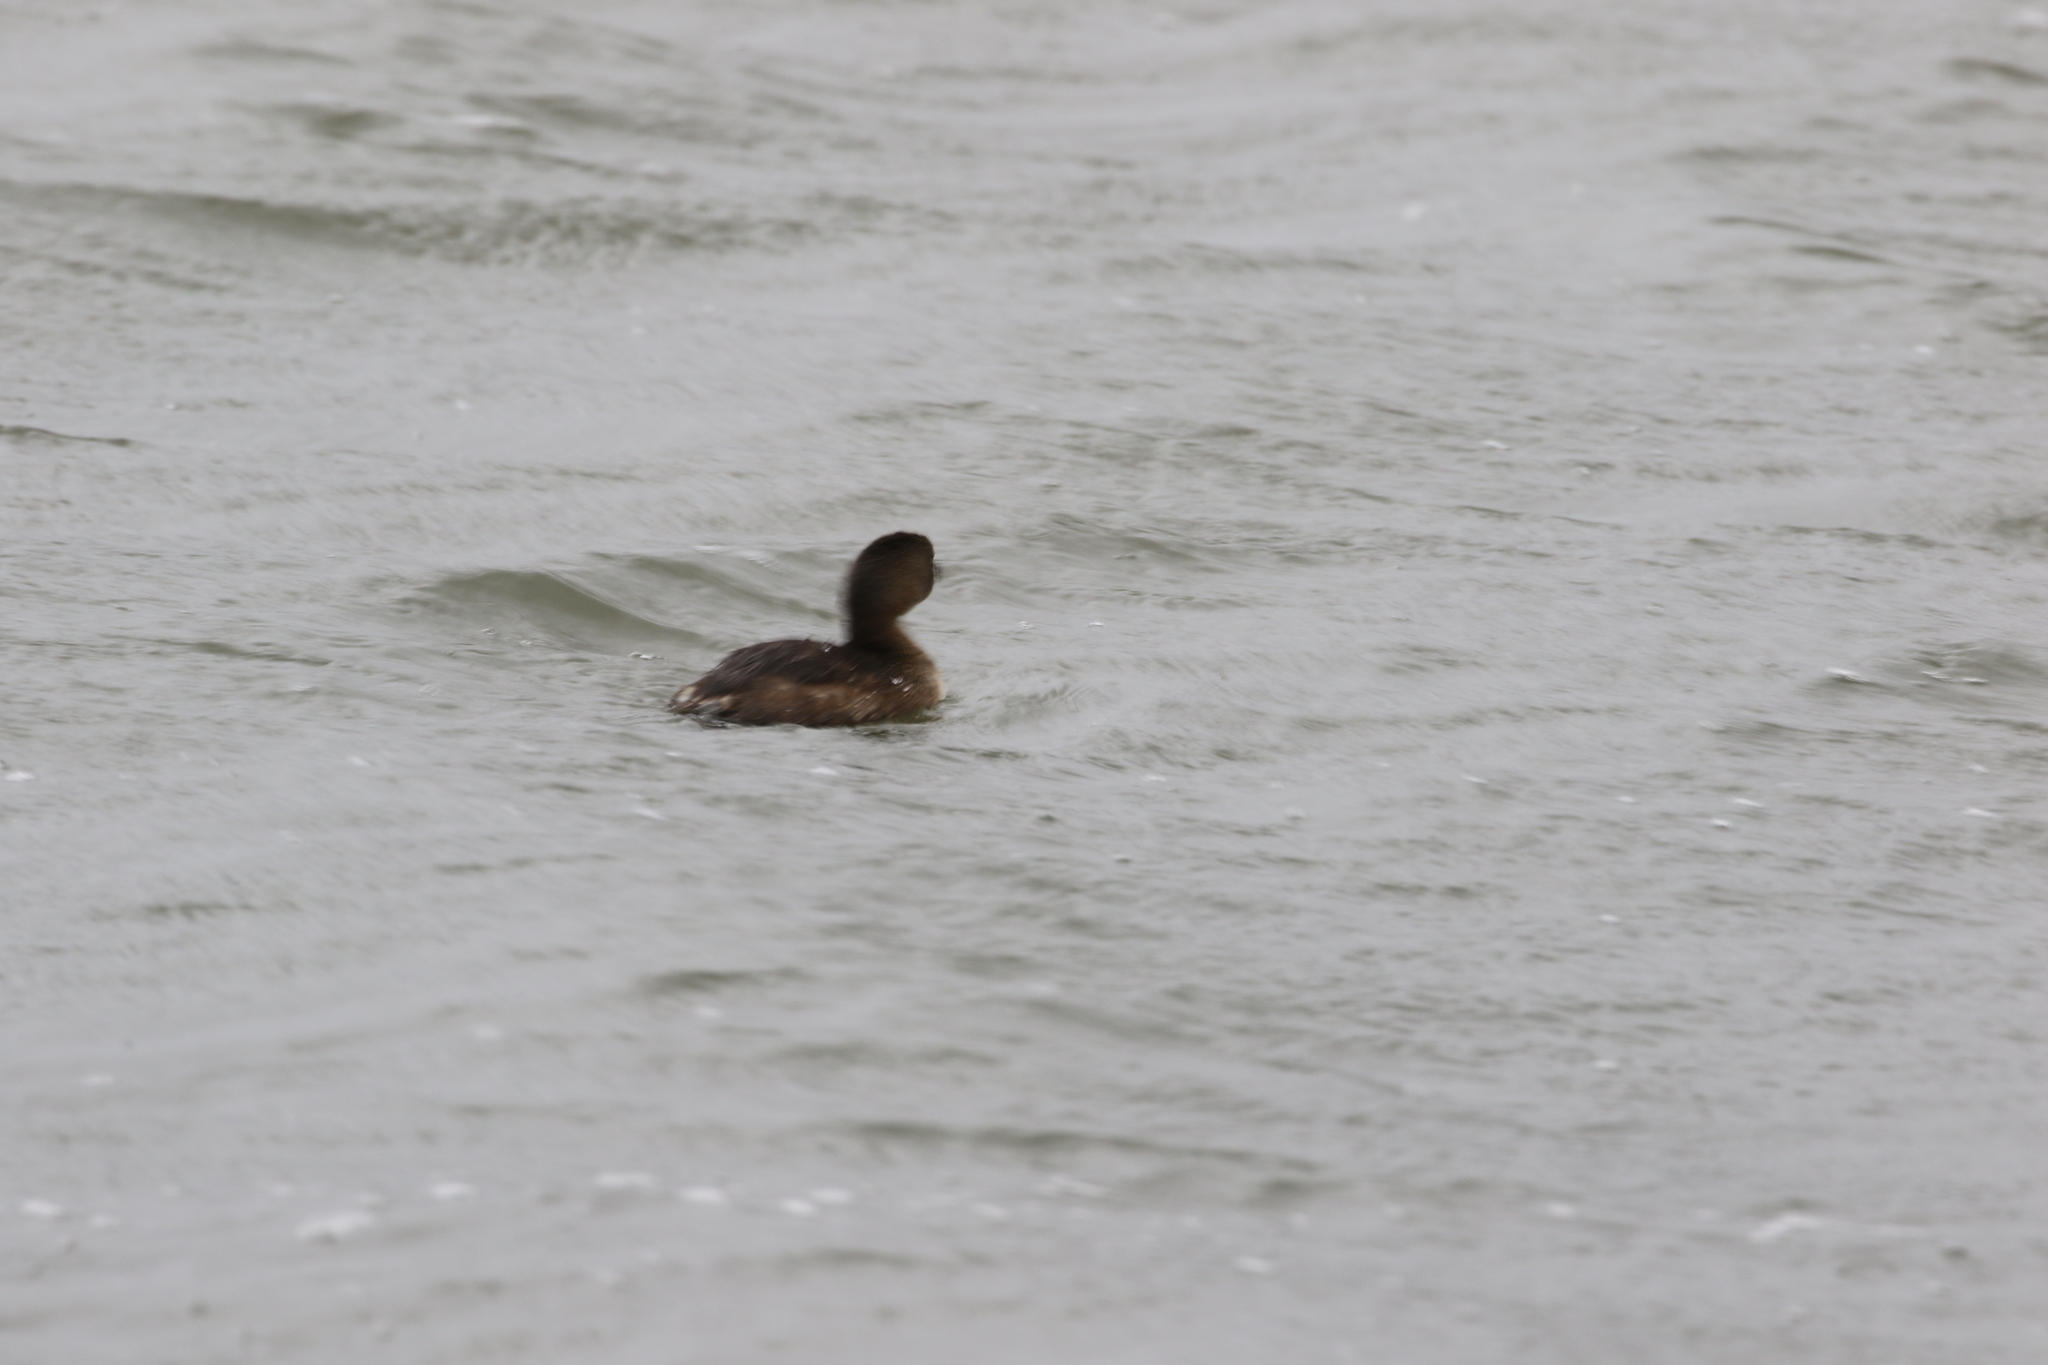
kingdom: Animalia
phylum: Chordata
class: Aves
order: Podicipediformes
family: Podicipedidae
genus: Podilymbus
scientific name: Podilymbus podiceps
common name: Pied-billed grebe
